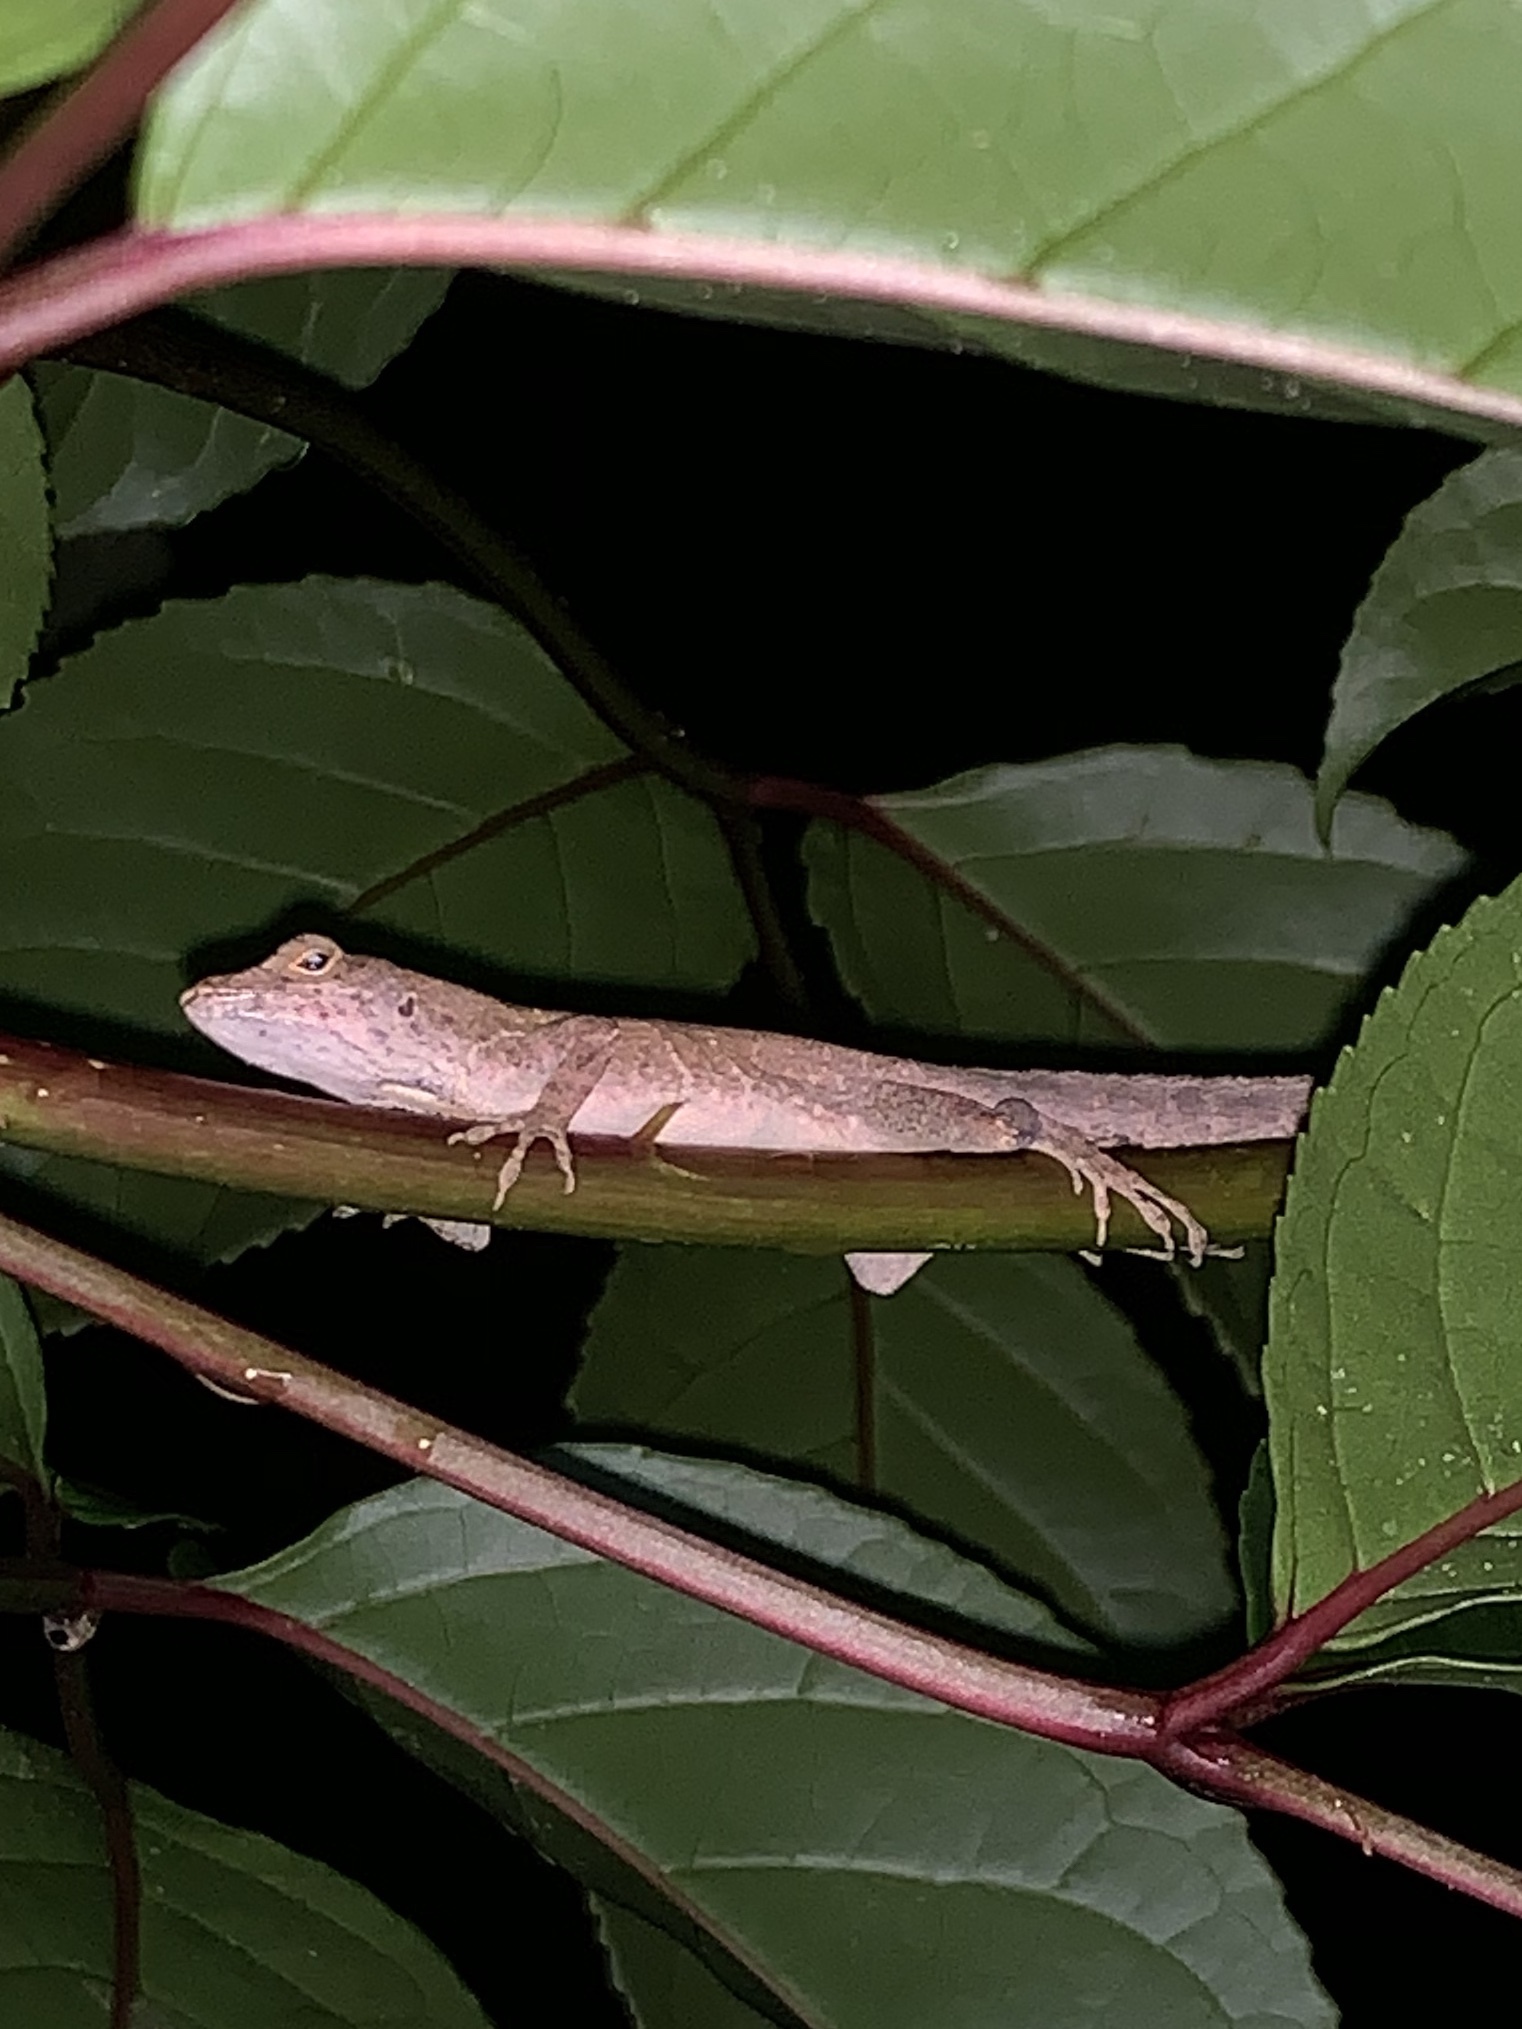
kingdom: Animalia
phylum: Chordata
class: Squamata
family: Dactyloidae
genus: Anolis
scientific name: Anolis sagrei
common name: Brown anole
